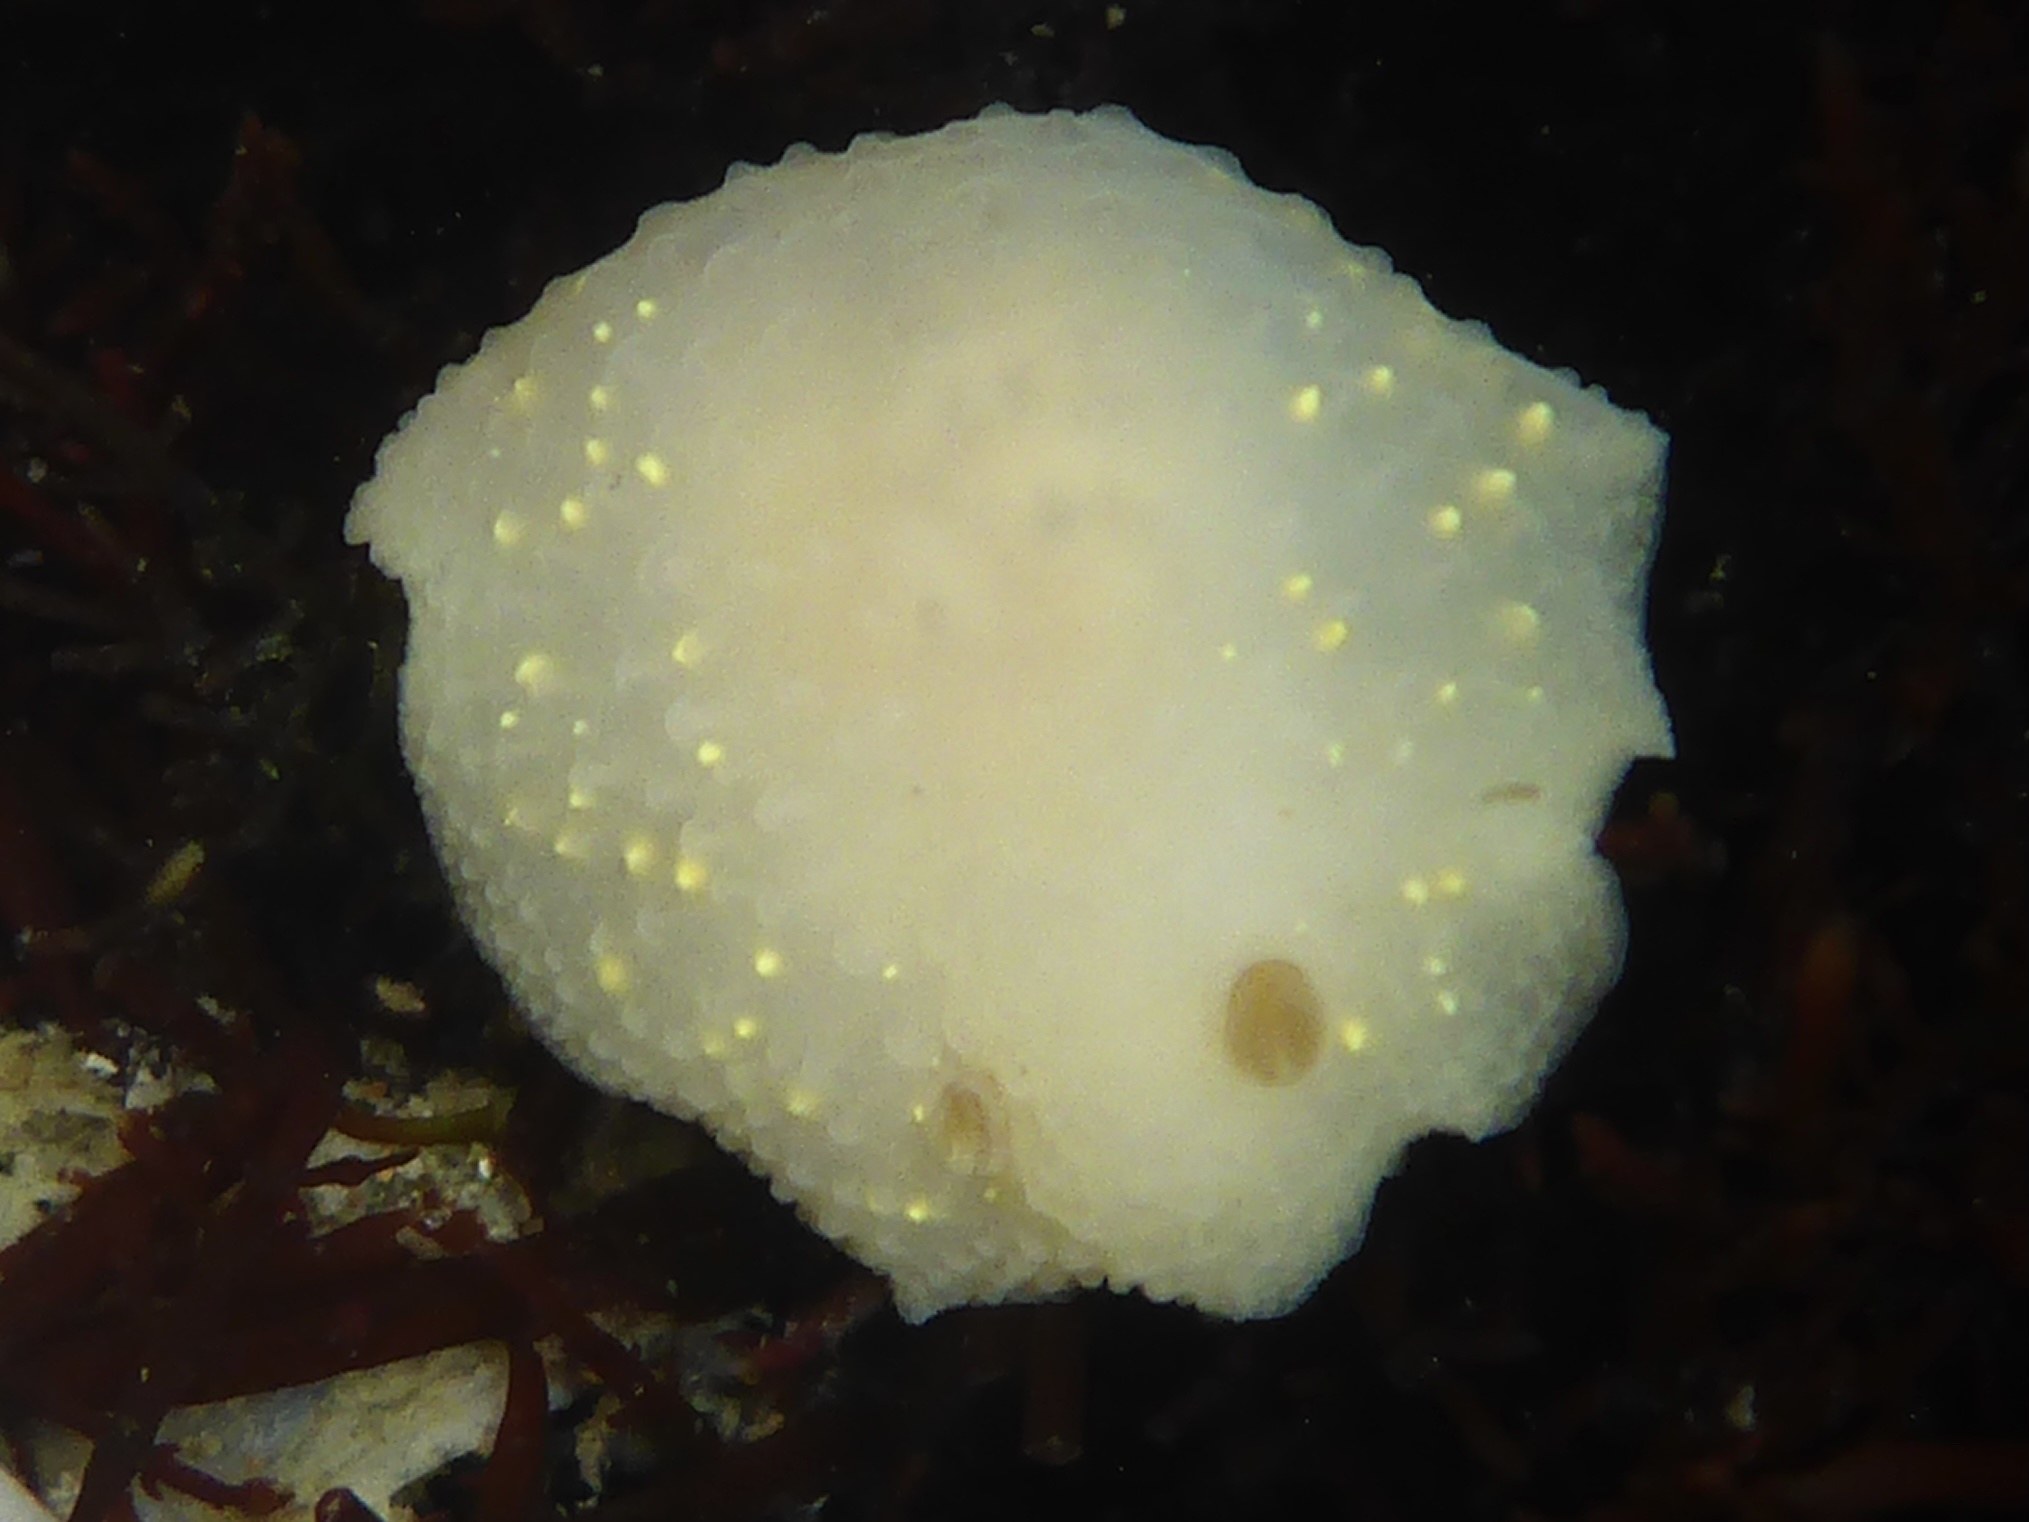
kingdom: Animalia
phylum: Mollusca
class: Gastropoda
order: Nudibranchia
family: Cadlinidae
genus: Cadlina
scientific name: Cadlina modesta
